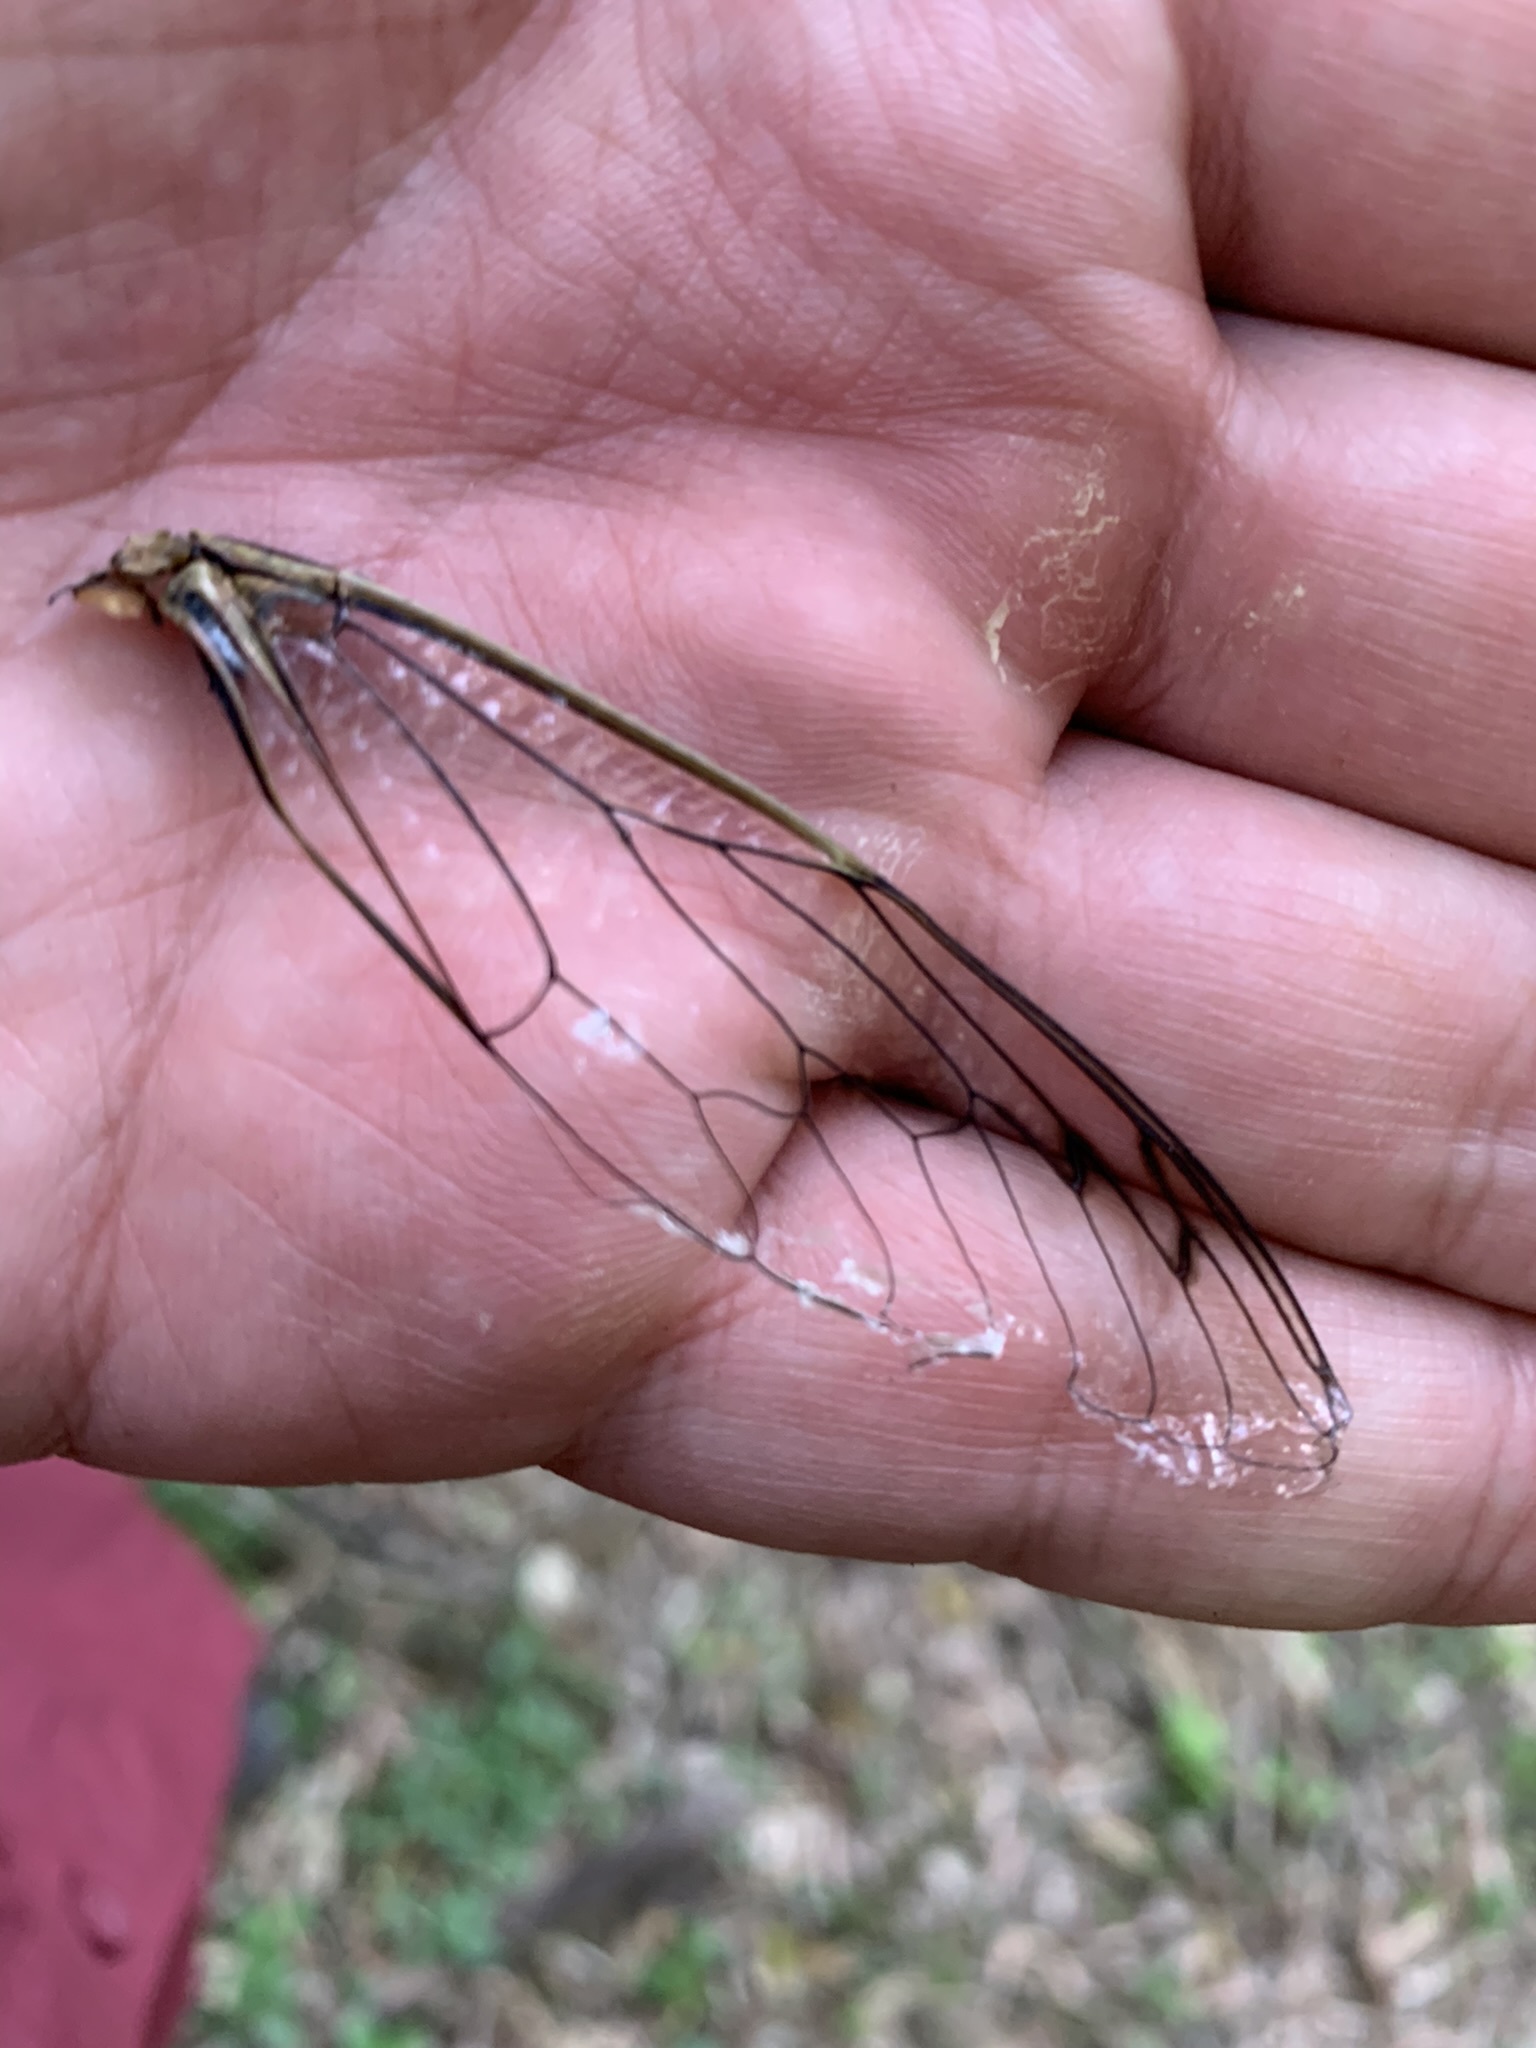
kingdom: Animalia
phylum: Arthropoda
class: Insecta
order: Hemiptera
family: Cicadidae
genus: Quesada
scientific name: Quesada gigas
